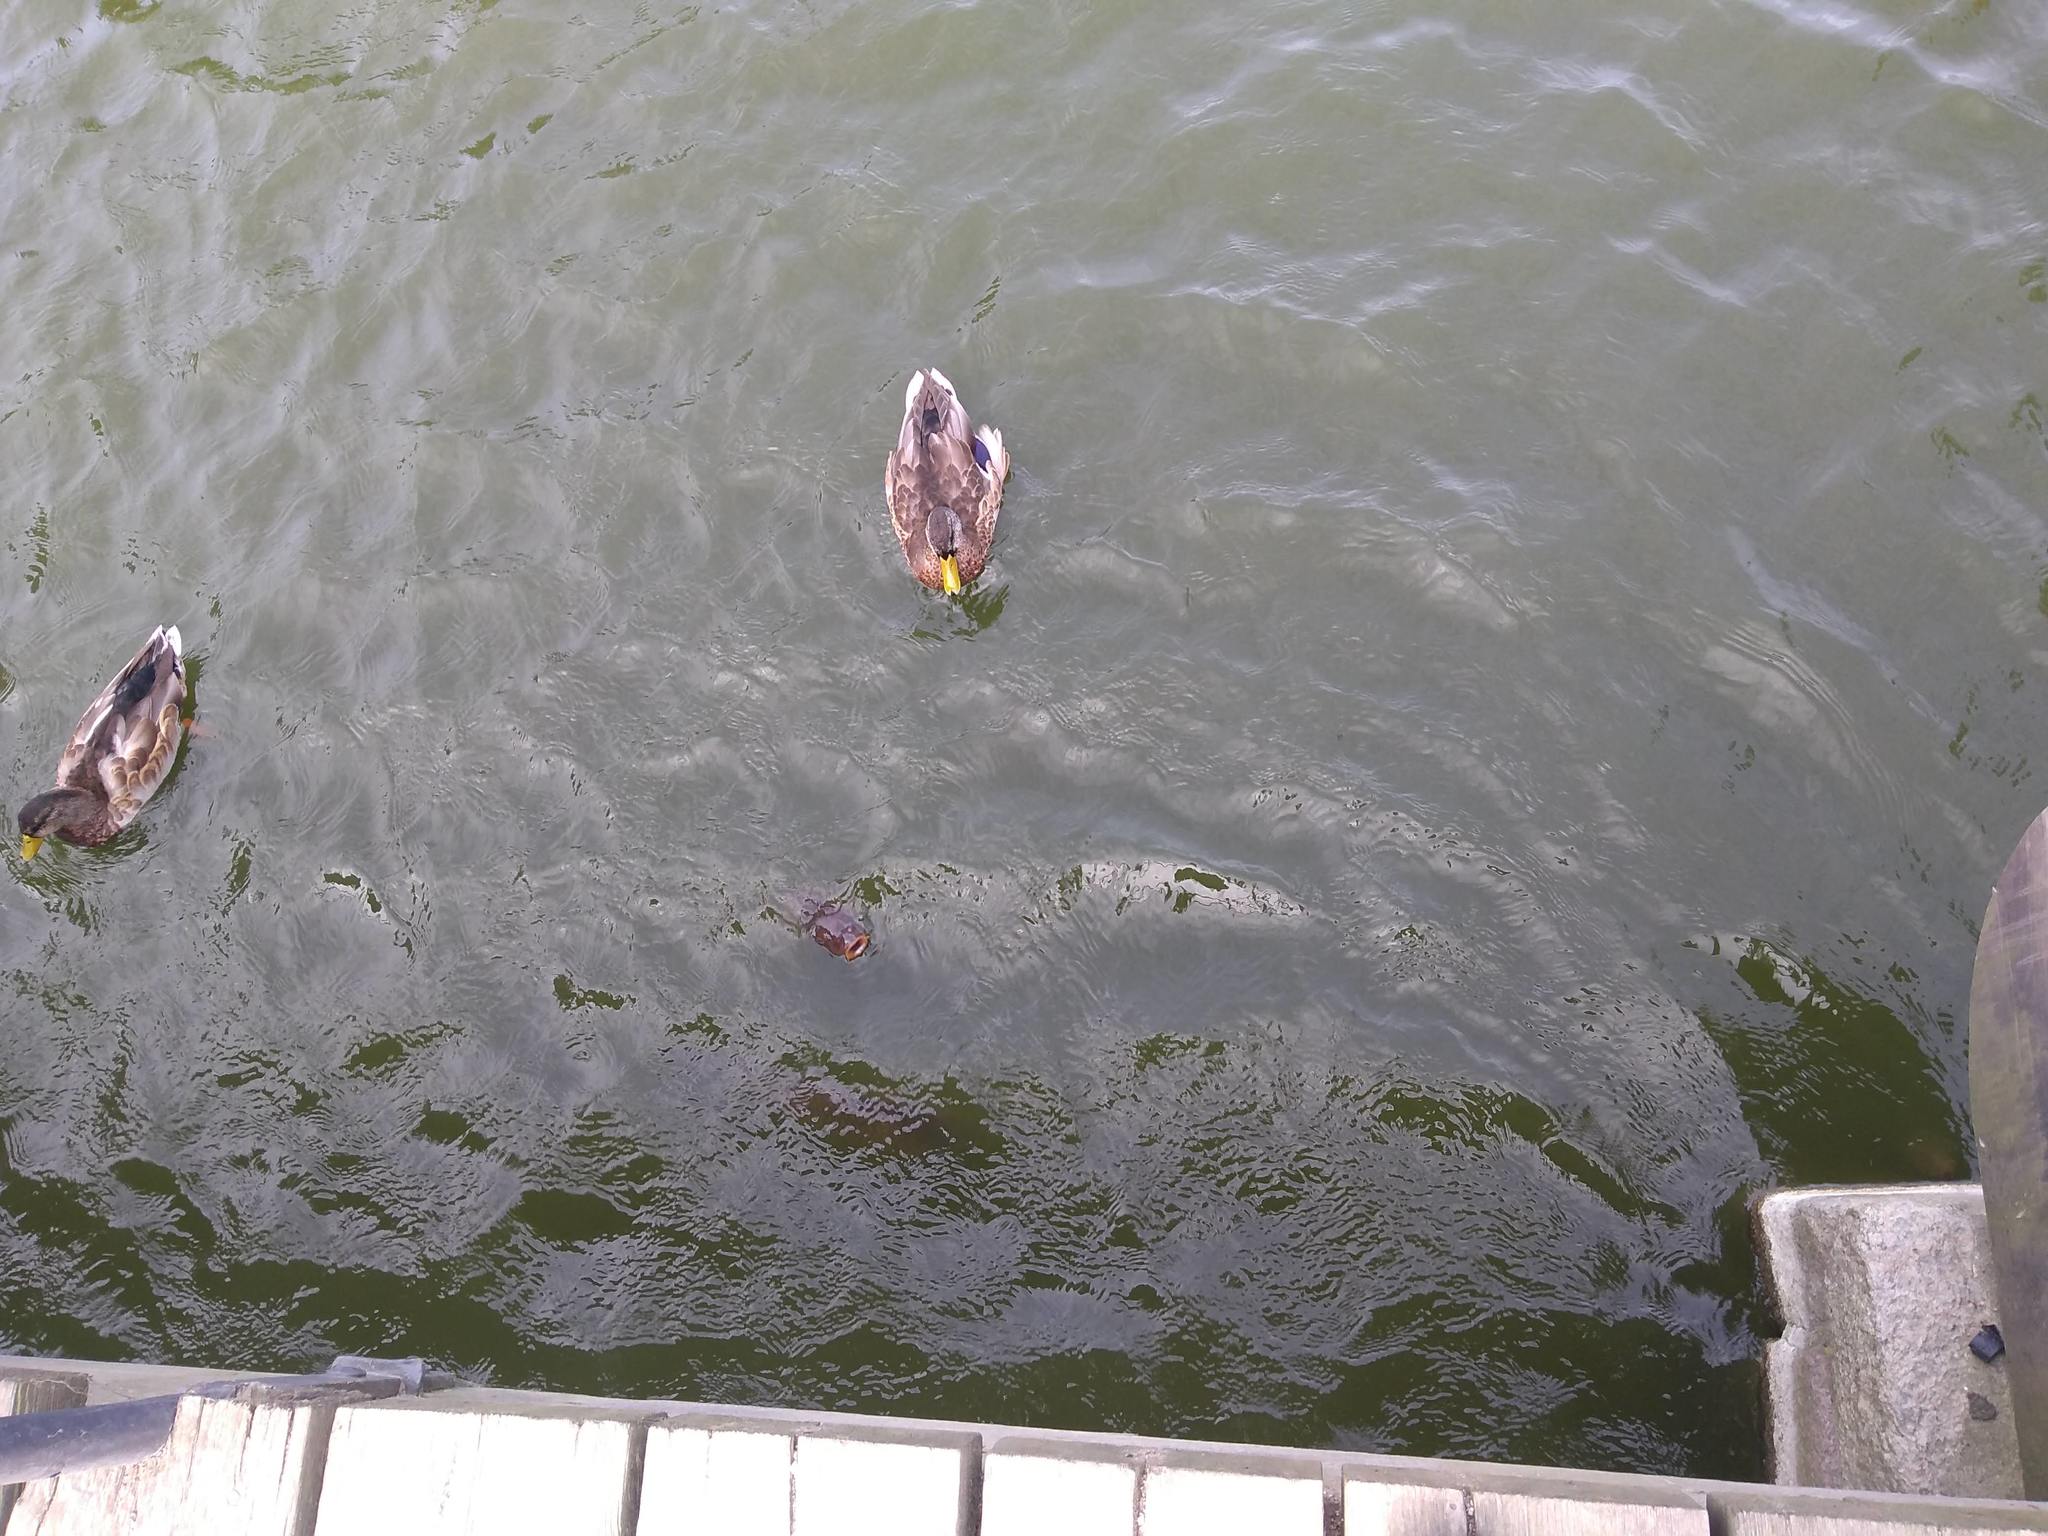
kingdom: Animalia
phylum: Chordata
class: Aves
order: Anseriformes
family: Anatidae
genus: Anas
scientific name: Anas platyrhynchos
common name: Mallard
